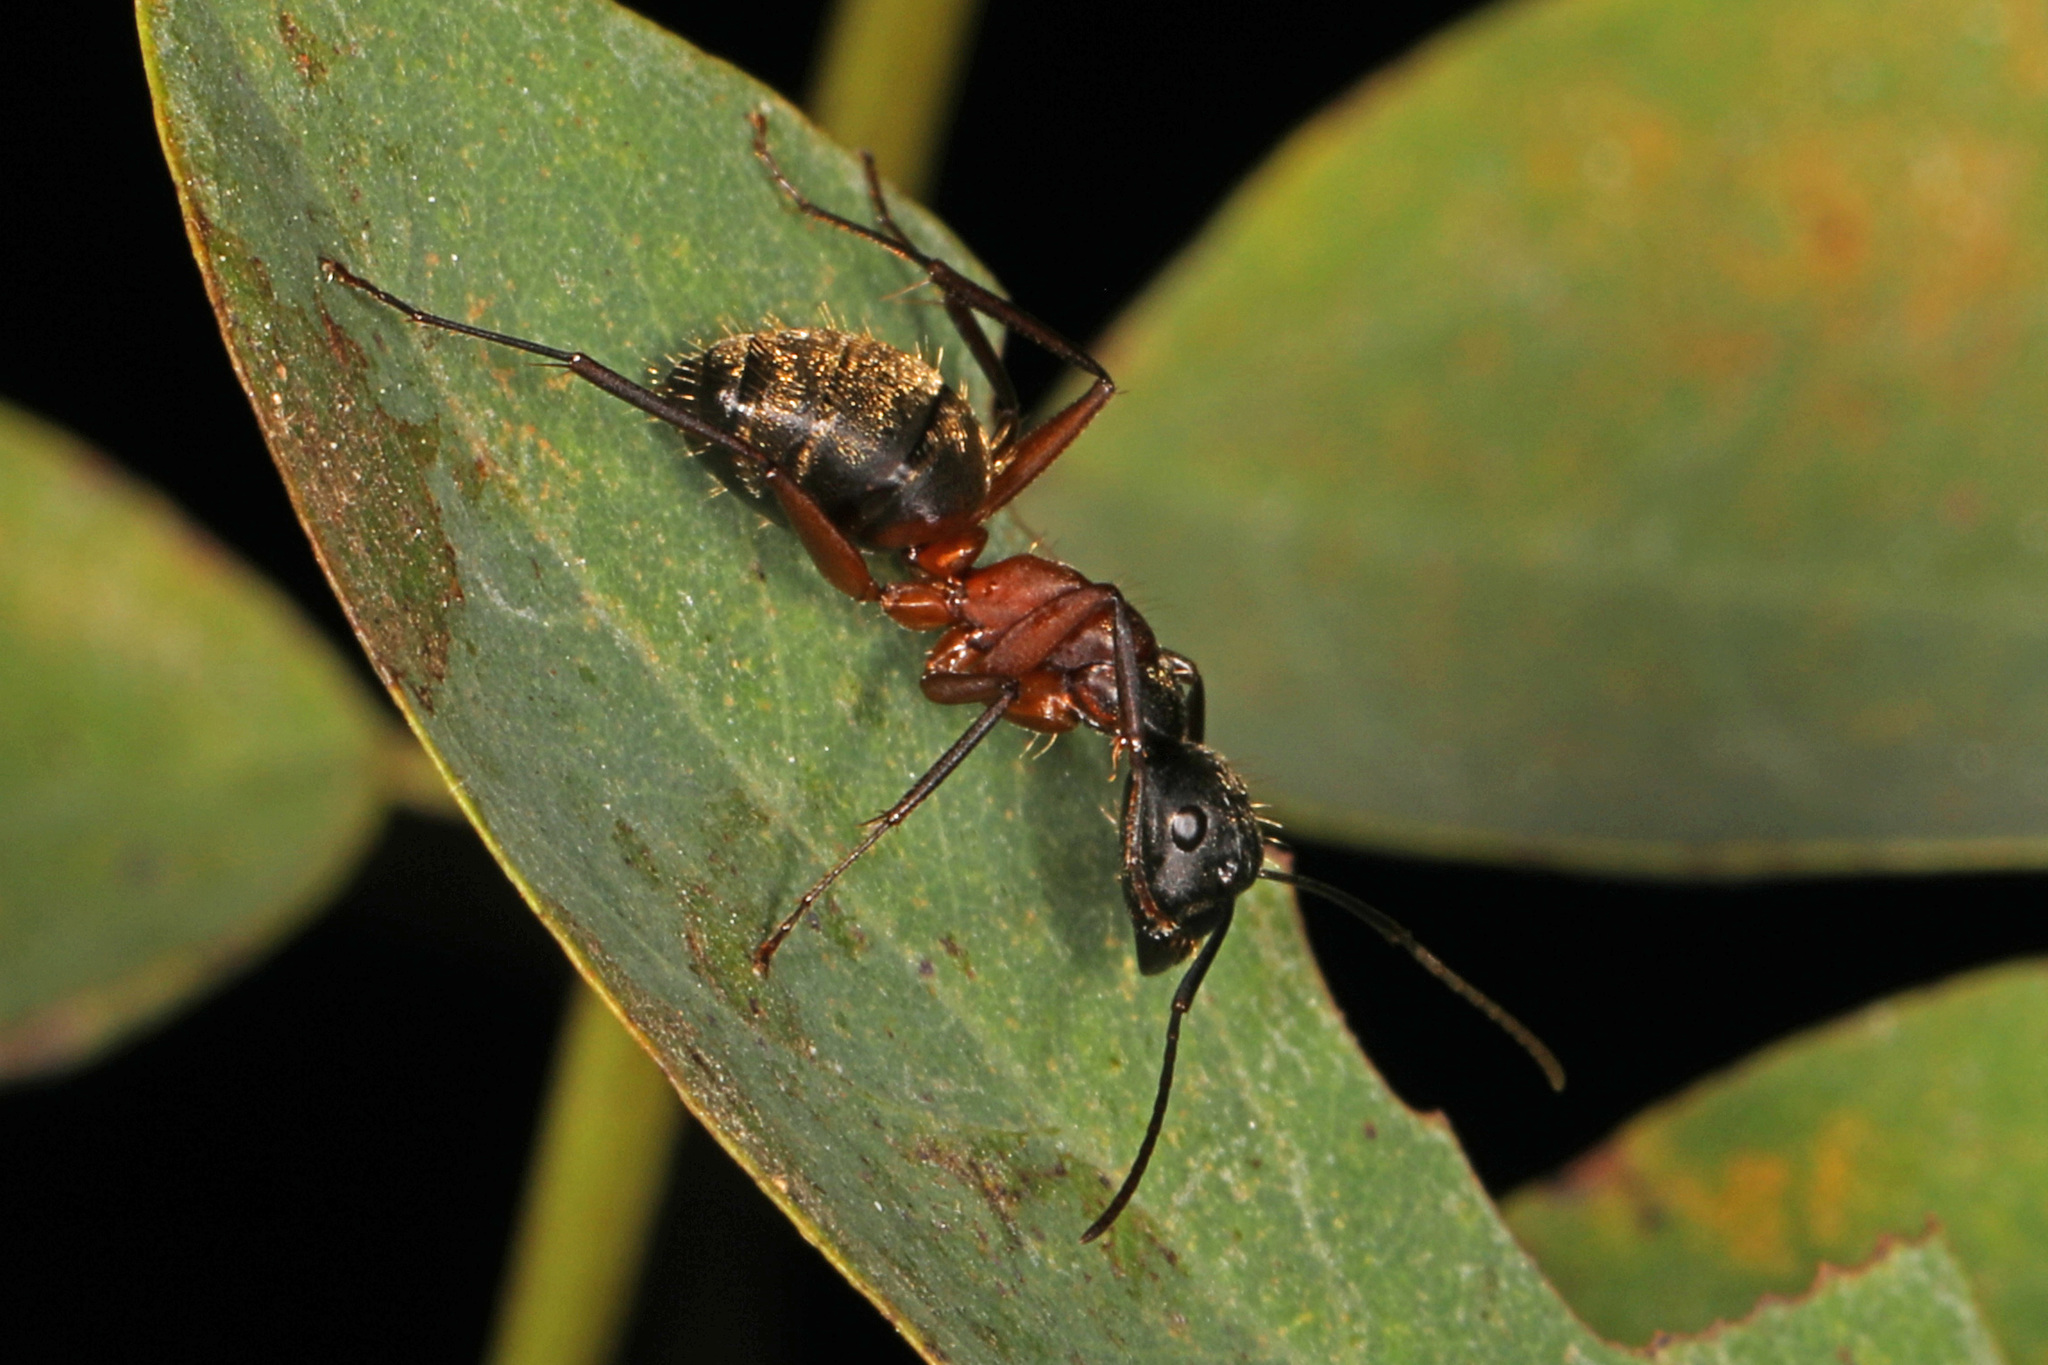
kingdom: Animalia
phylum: Arthropoda
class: Insecta
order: Hymenoptera
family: Formicidae
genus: Camponotus
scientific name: Camponotus chromaiodes
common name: Red carpenter ant
